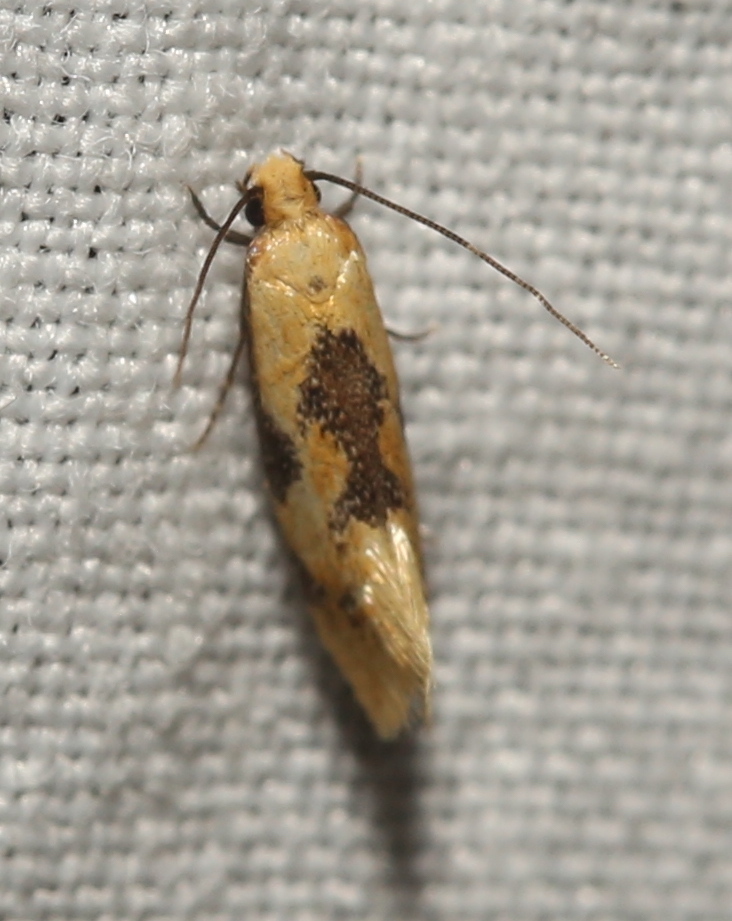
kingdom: Animalia
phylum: Arthropoda
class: Insecta
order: Lepidoptera
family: Meessiidae
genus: Hybroma
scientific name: Hybroma servulella
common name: Yellow wave moth
